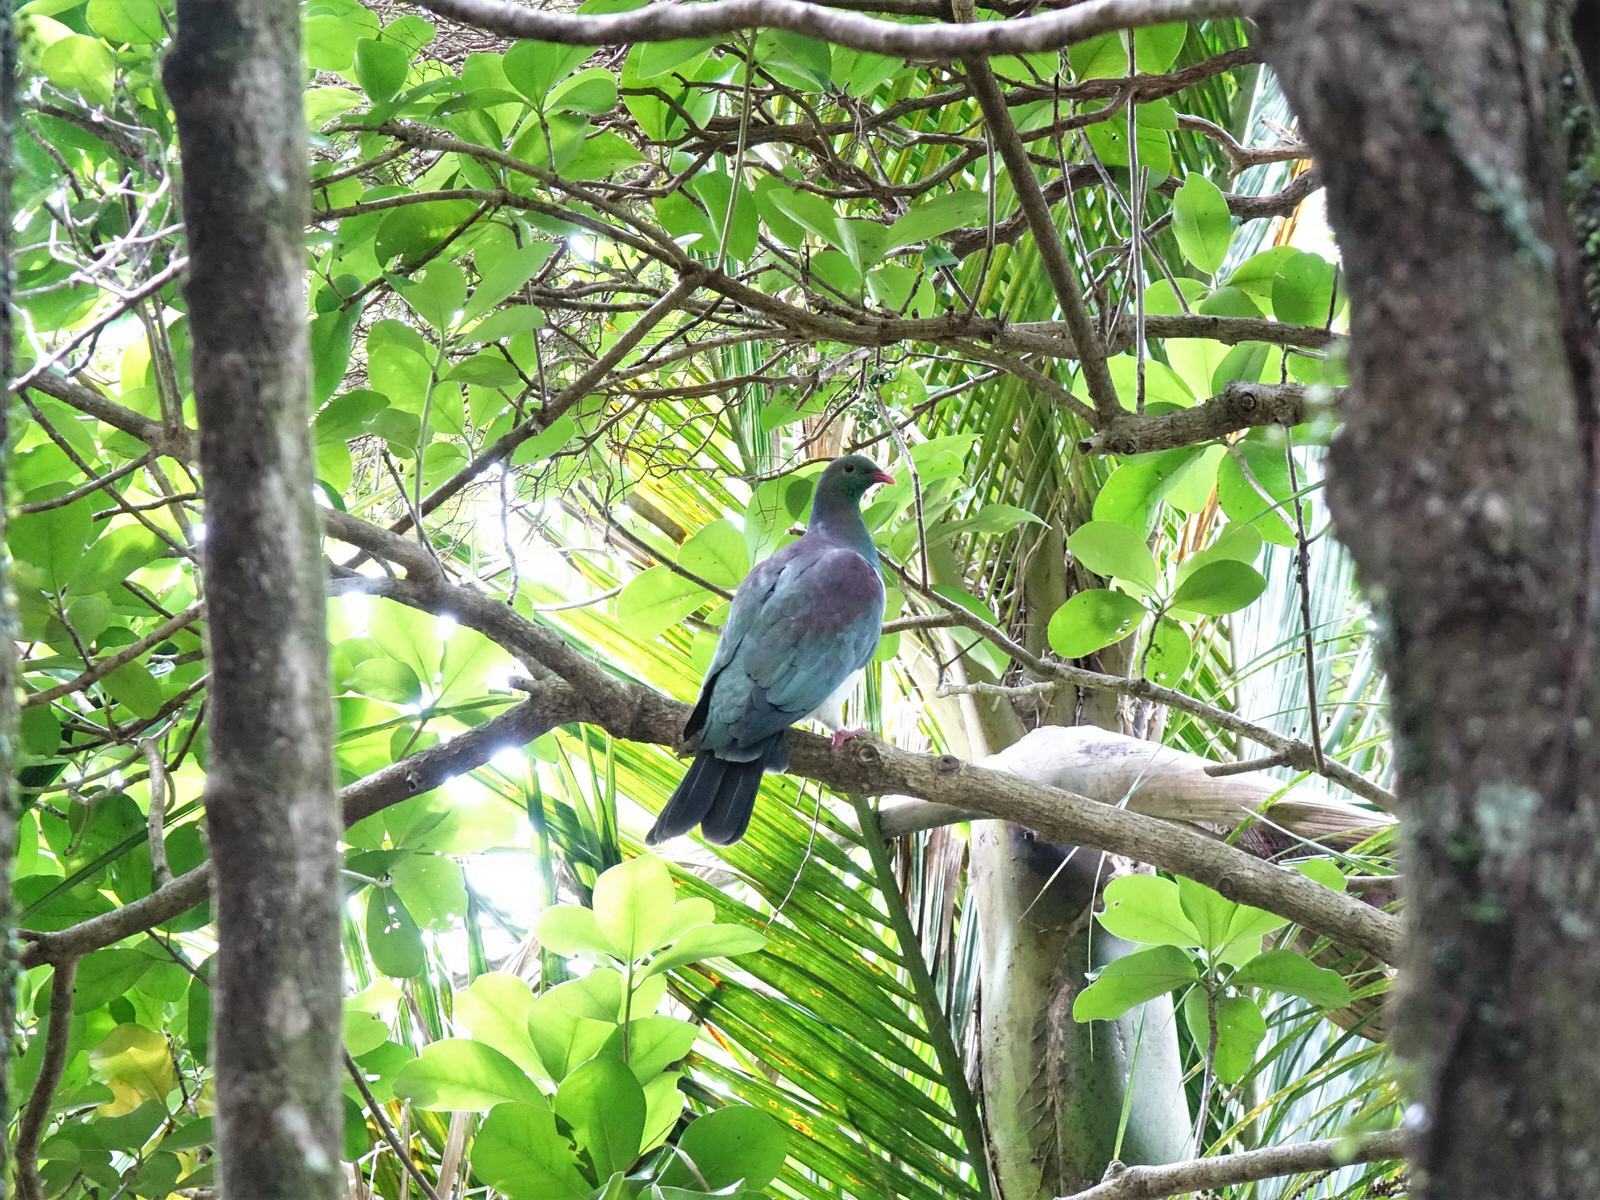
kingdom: Animalia
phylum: Chordata
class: Aves
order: Columbiformes
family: Columbidae
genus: Hemiphaga
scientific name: Hemiphaga novaeseelandiae
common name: New zealand pigeon
